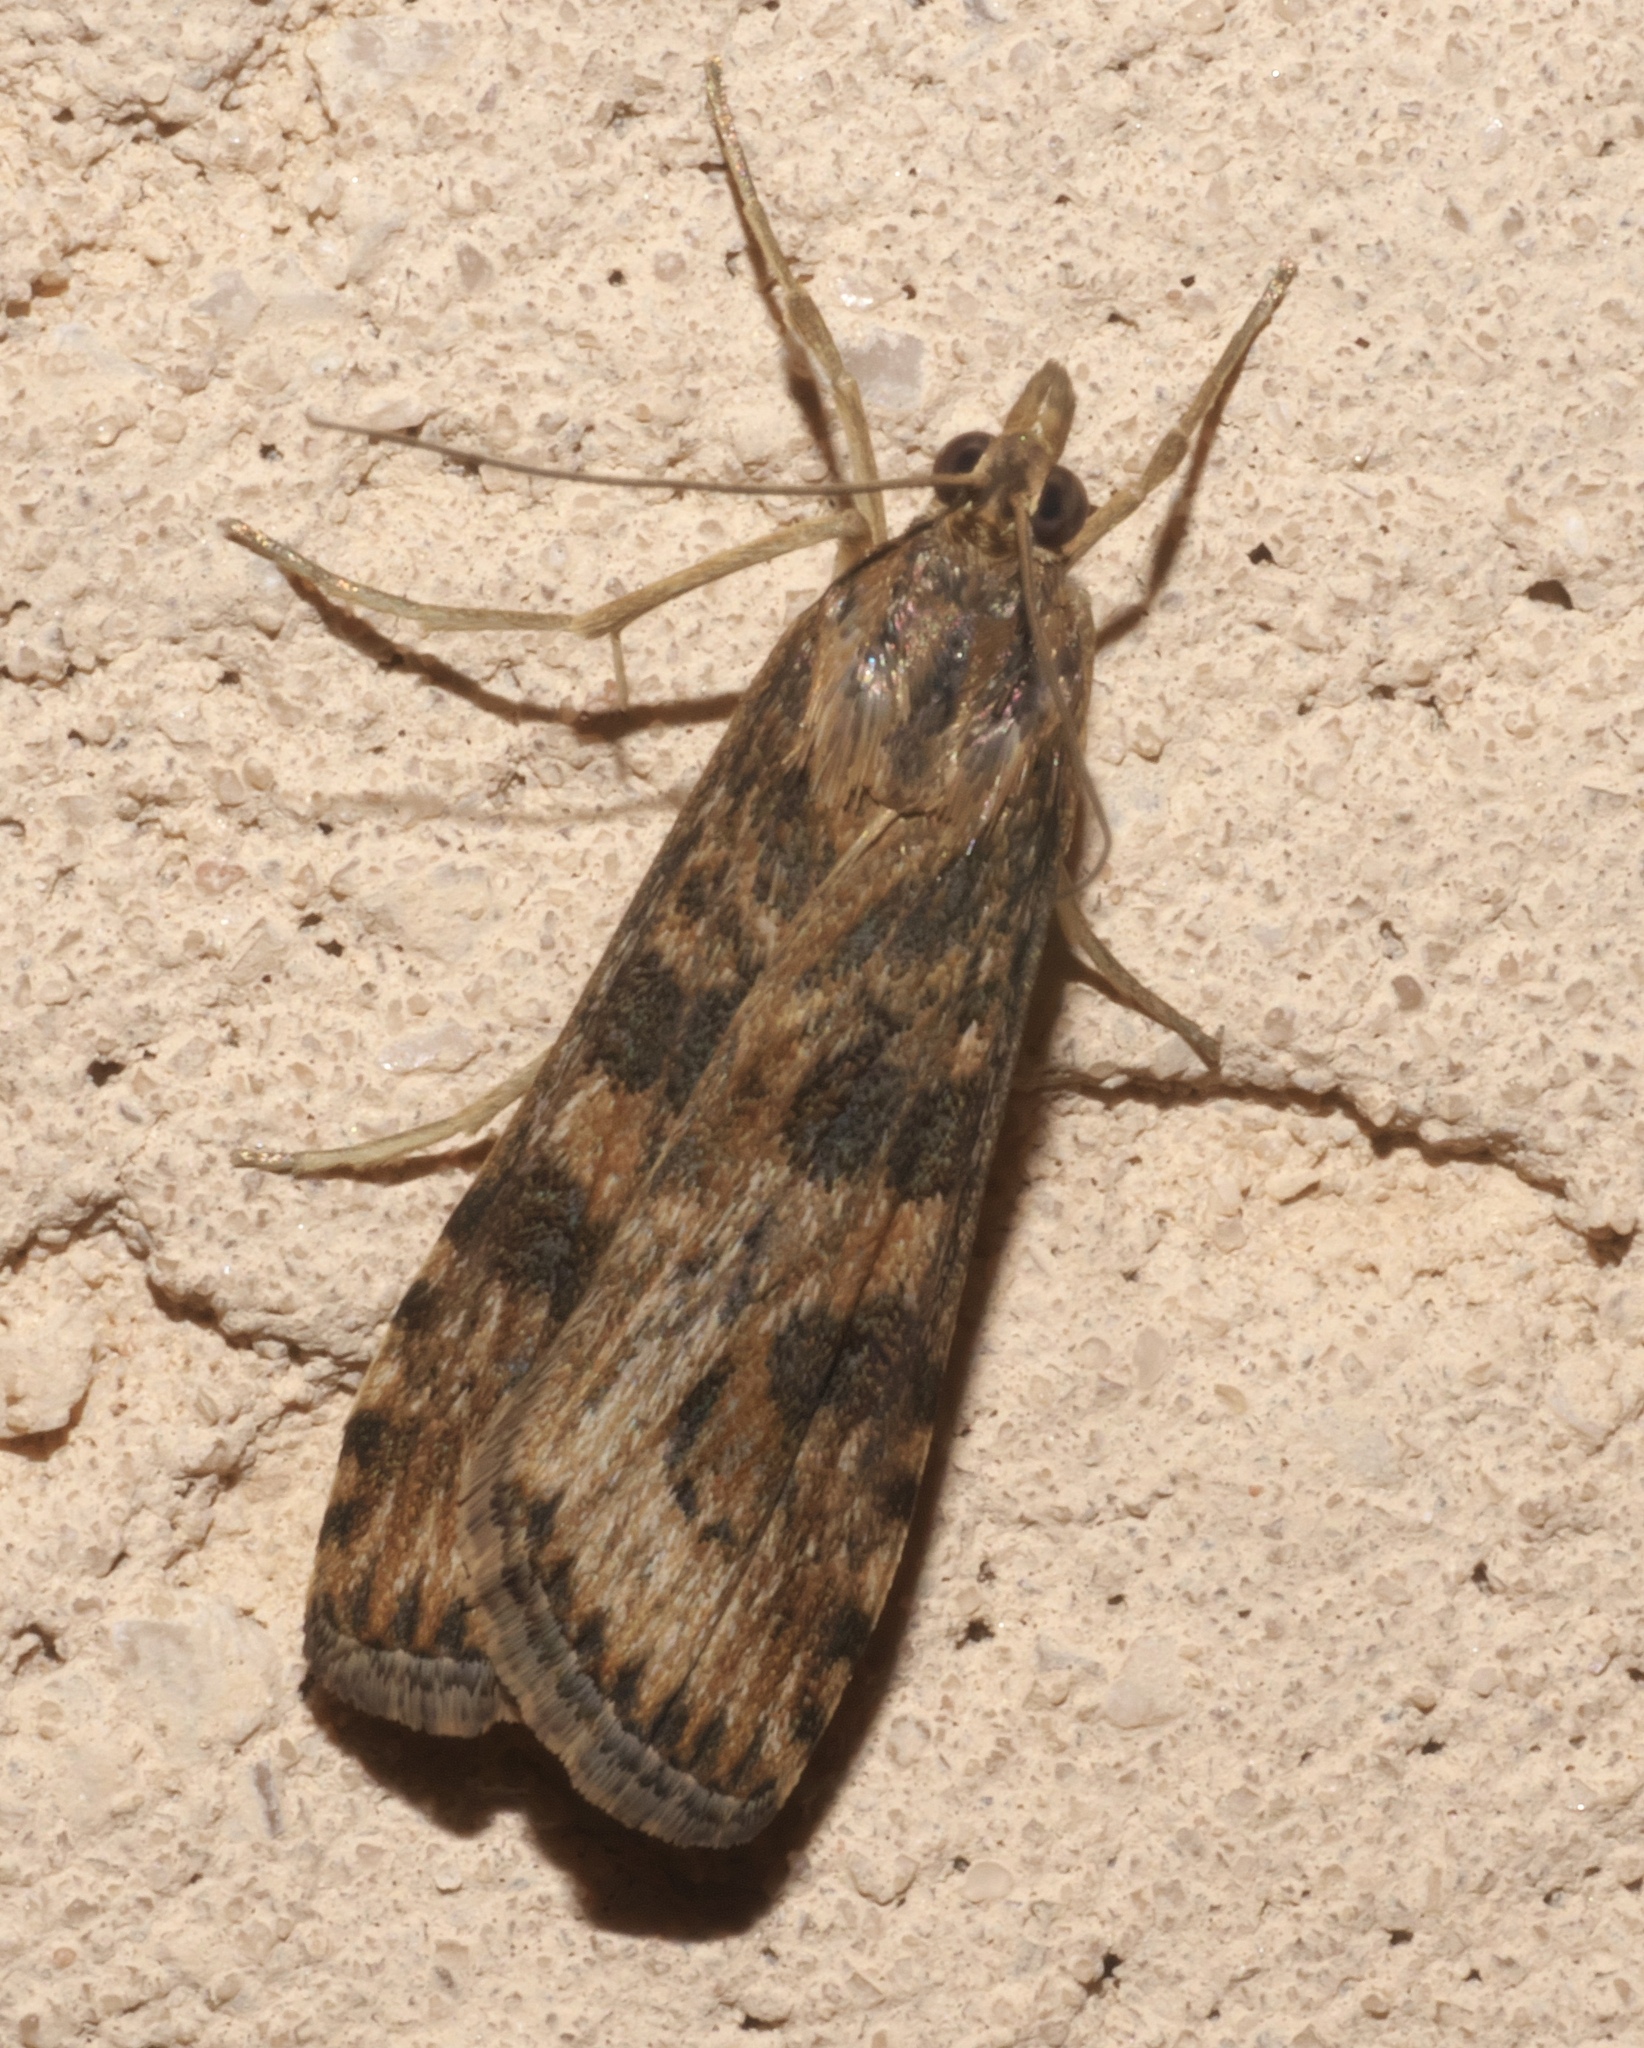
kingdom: Animalia
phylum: Arthropoda
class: Insecta
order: Lepidoptera
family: Crambidae
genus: Nomophila
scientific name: Nomophila nearctica
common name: American rush veneer
